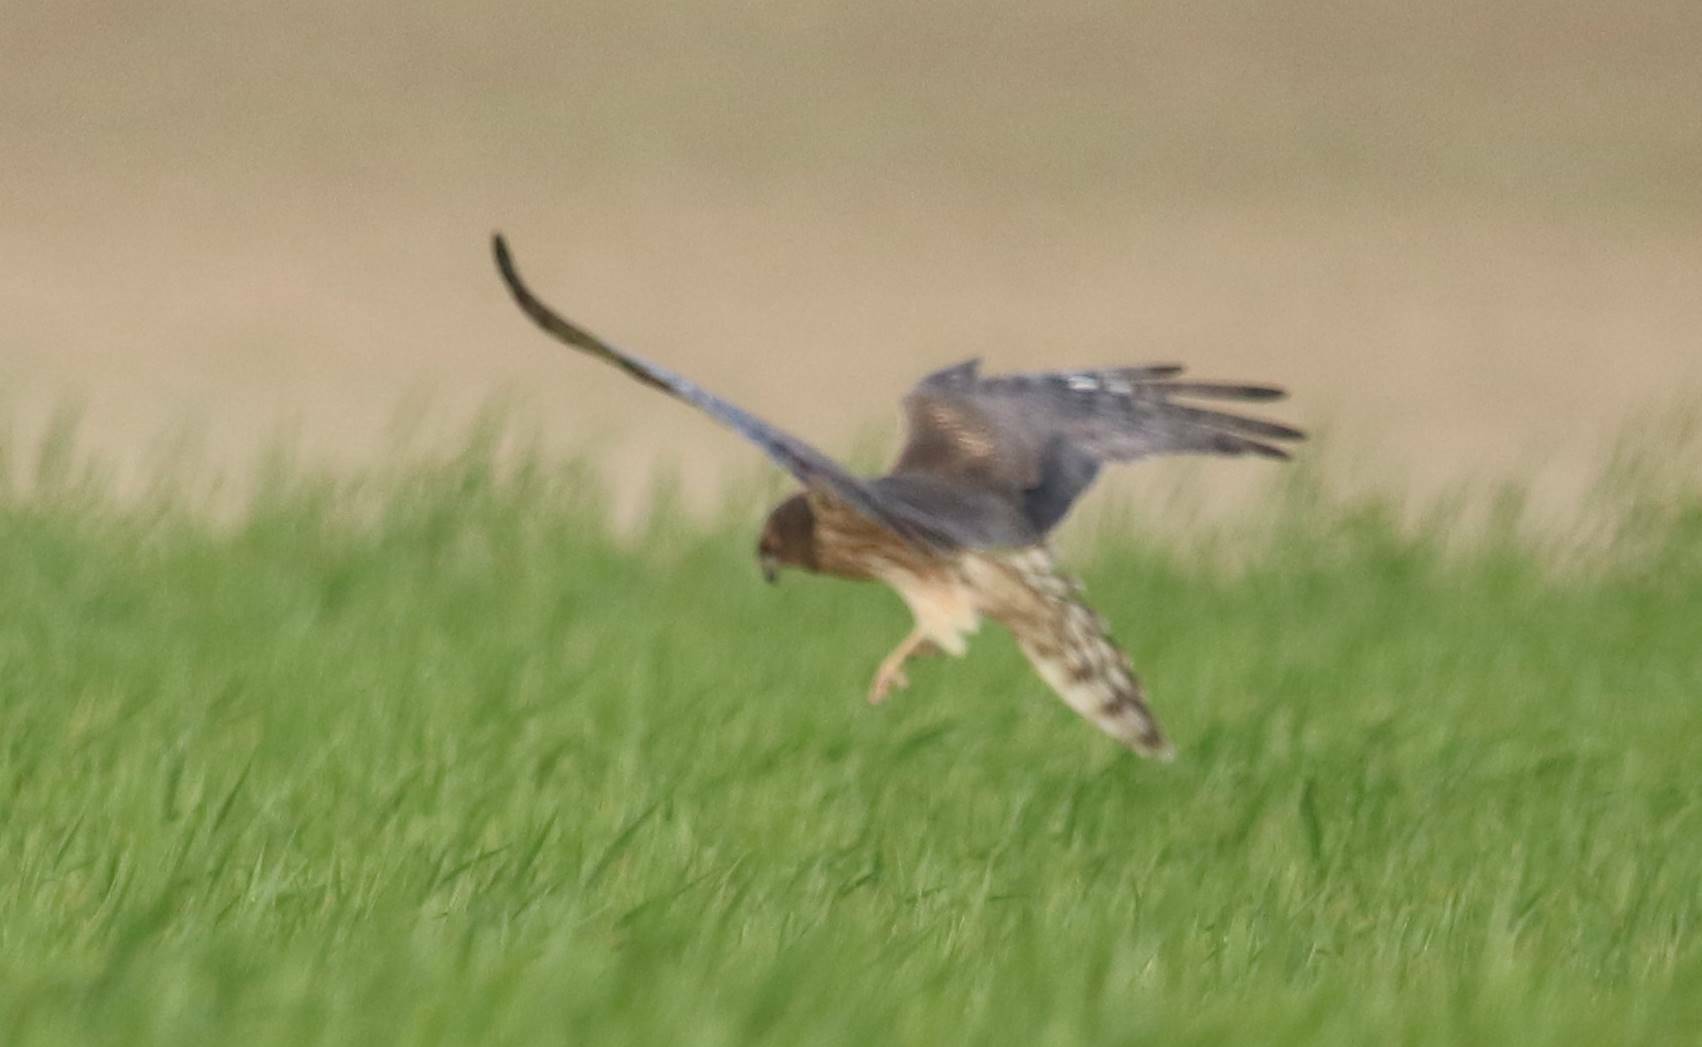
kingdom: Animalia
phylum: Chordata
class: Aves
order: Accipitriformes
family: Accipitridae
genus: Circus
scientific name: Circus pygargus
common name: Montagu's harrier
